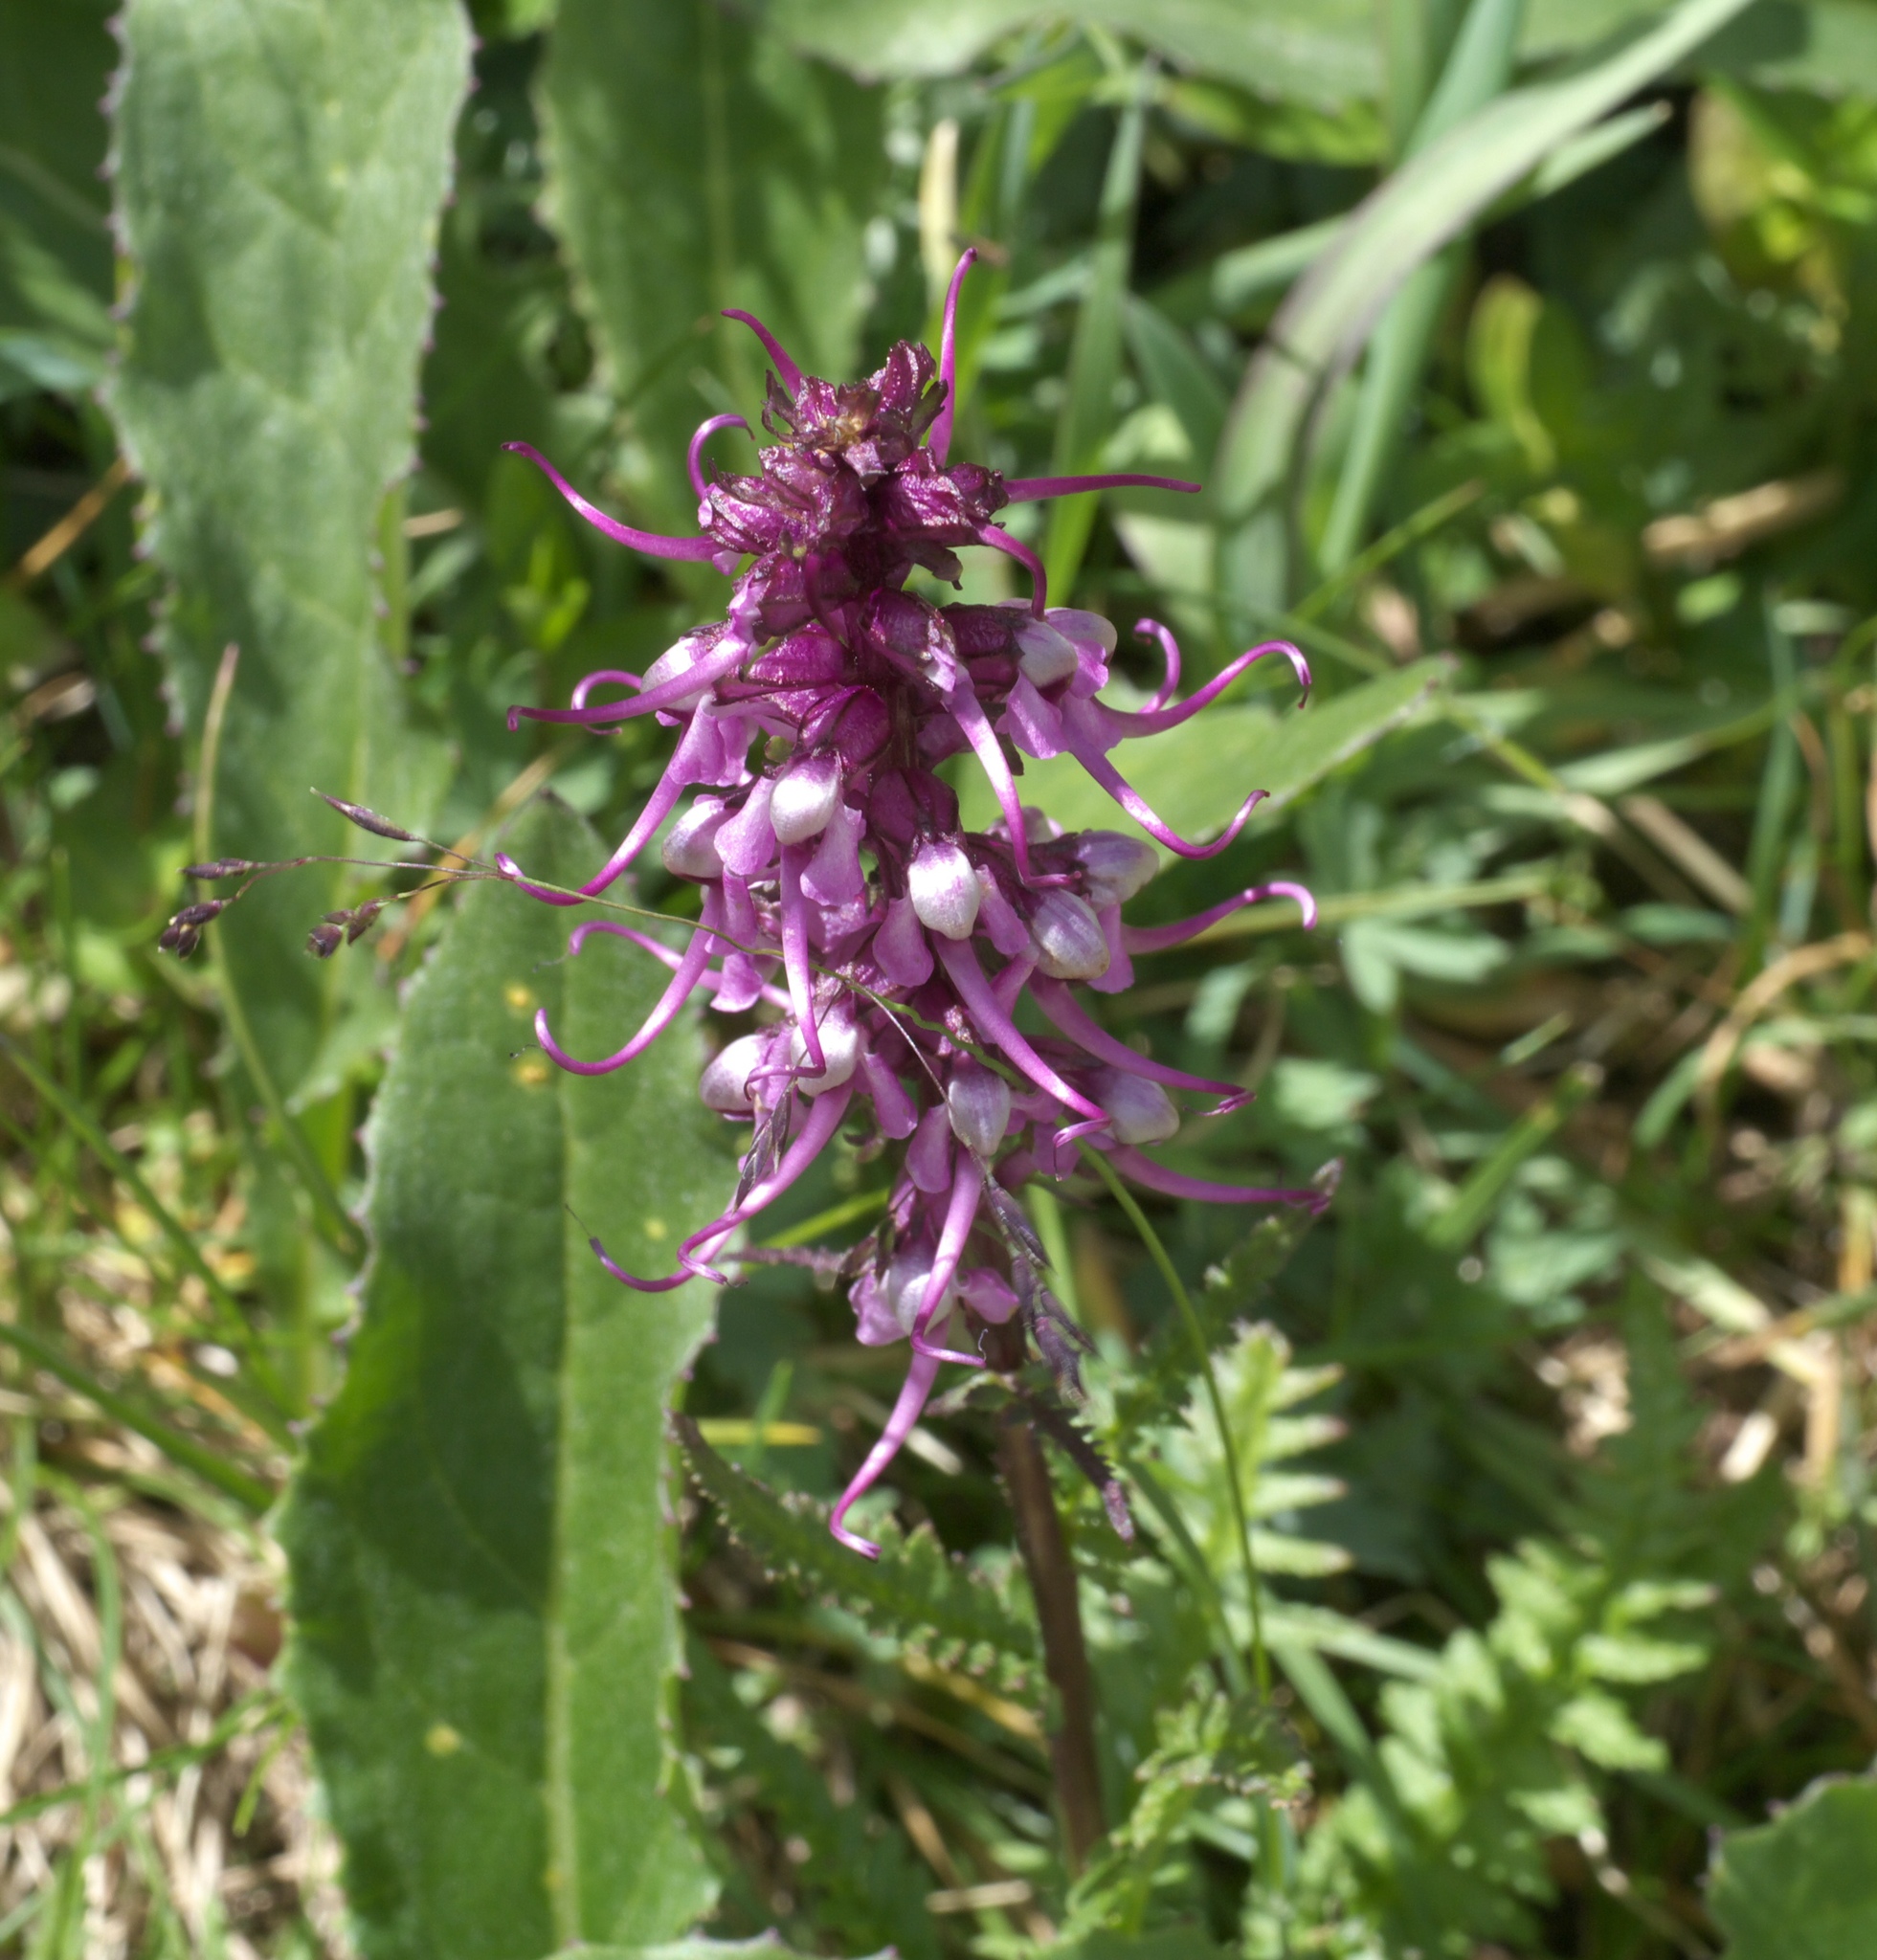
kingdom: Plantae
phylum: Tracheophyta
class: Magnoliopsida
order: Lamiales
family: Orobanchaceae
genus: Pedicularis
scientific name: Pedicularis groenlandica
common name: Elephant's-head
